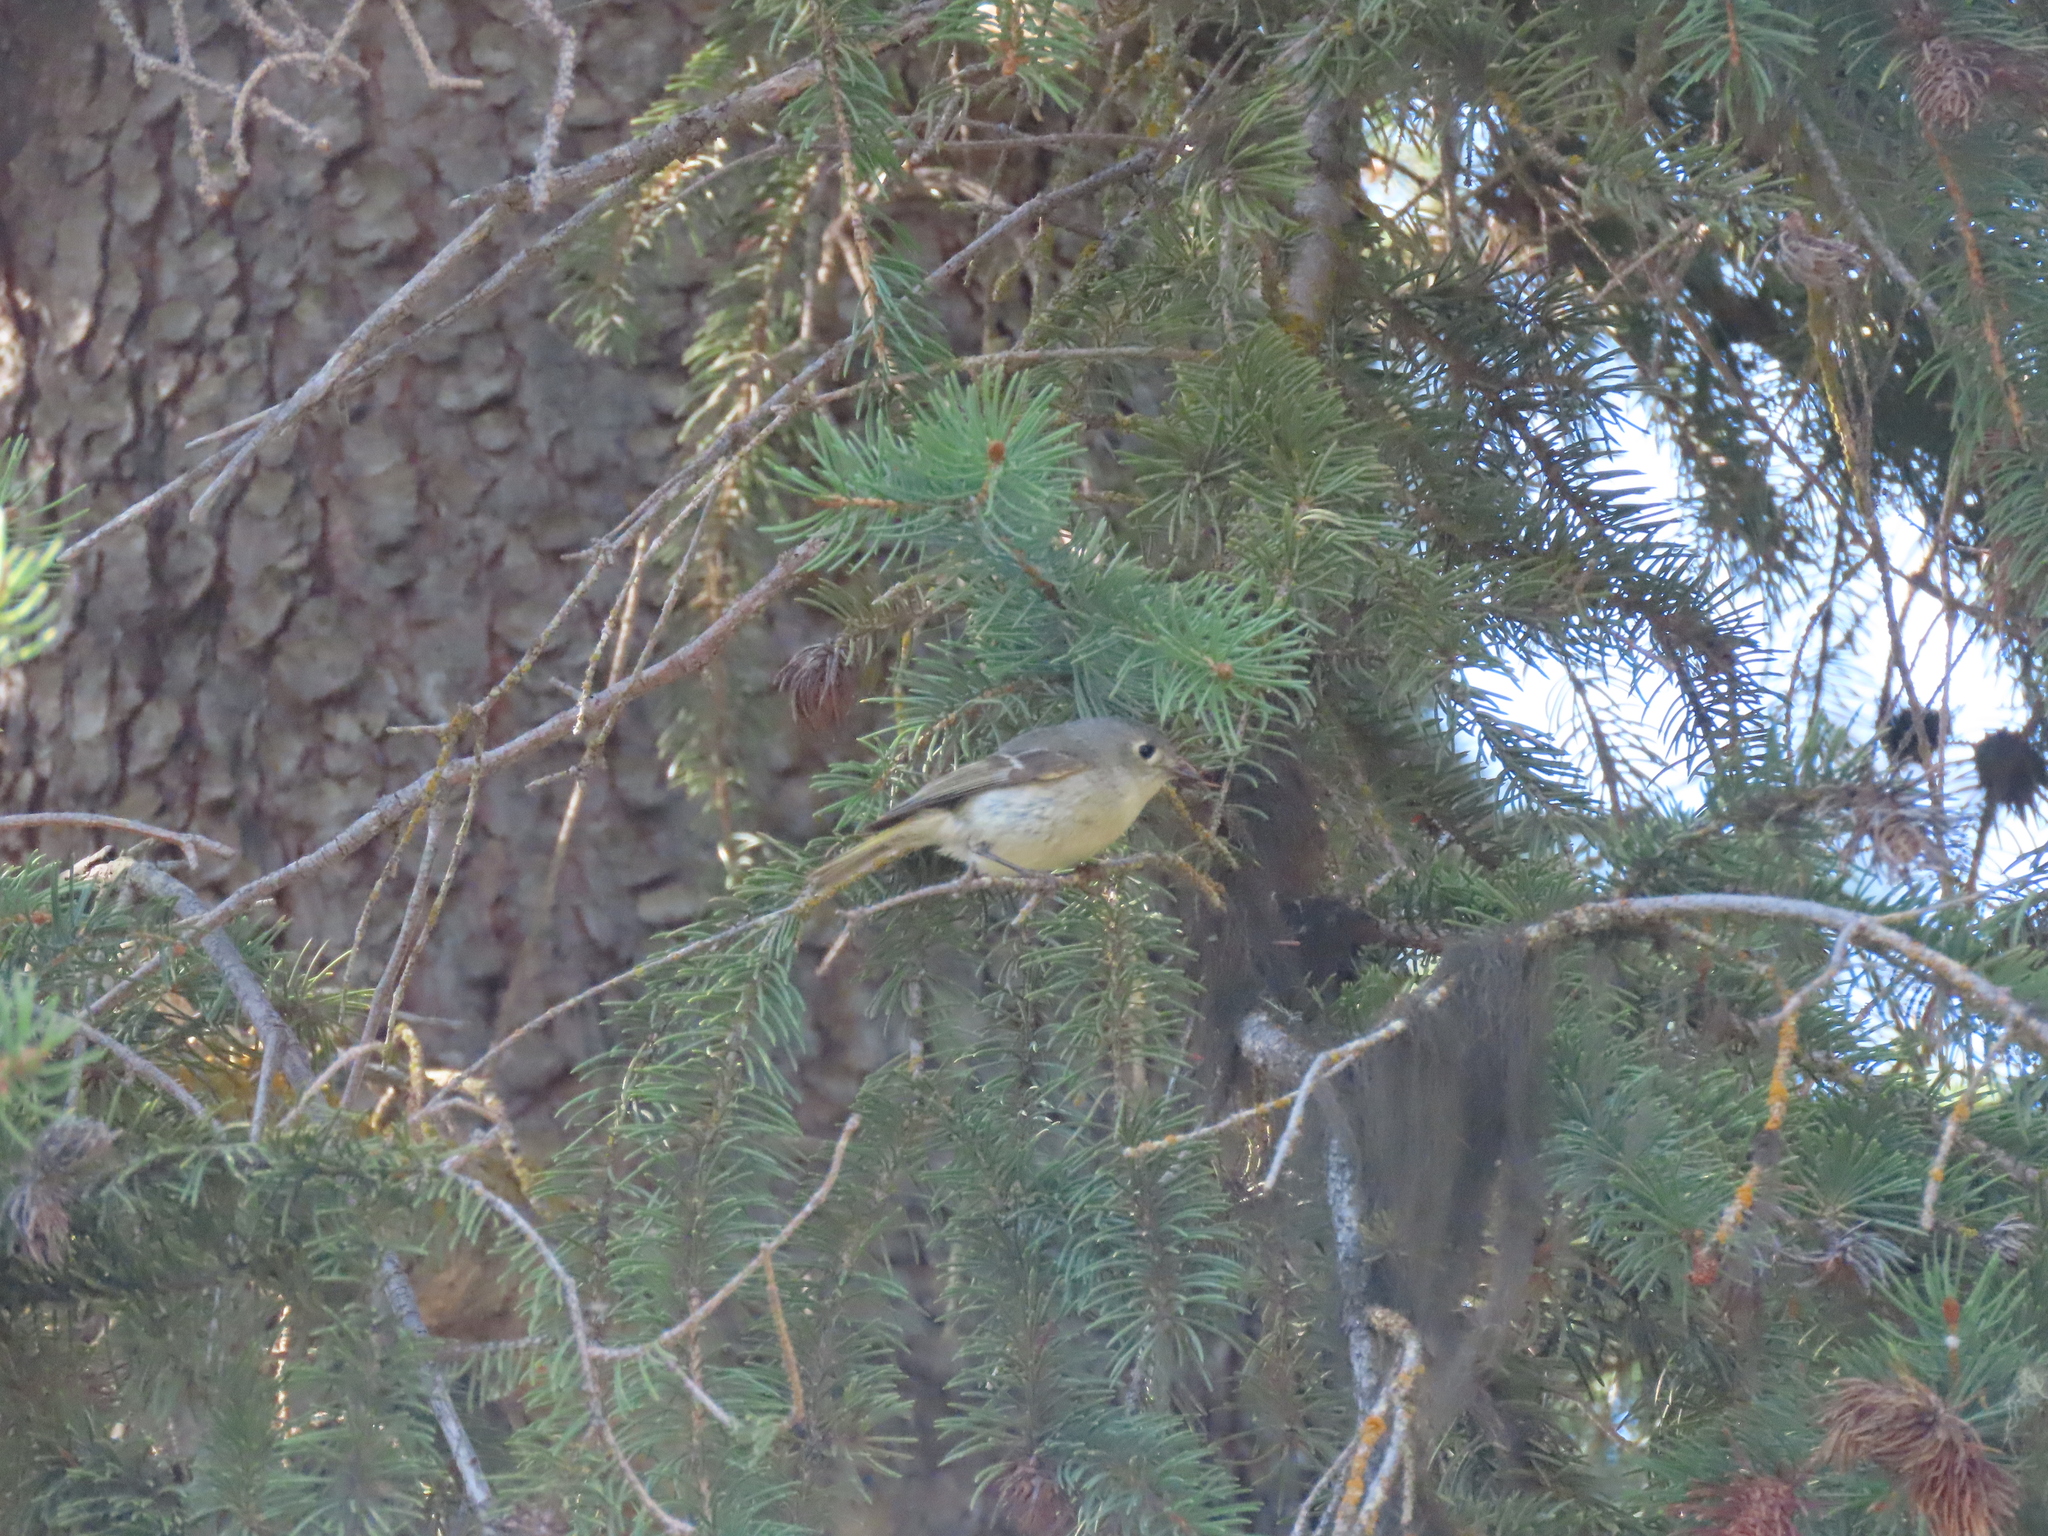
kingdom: Animalia
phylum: Chordata
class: Aves
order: Passeriformes
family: Regulidae
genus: Regulus
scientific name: Regulus calendula
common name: Ruby-crowned kinglet
